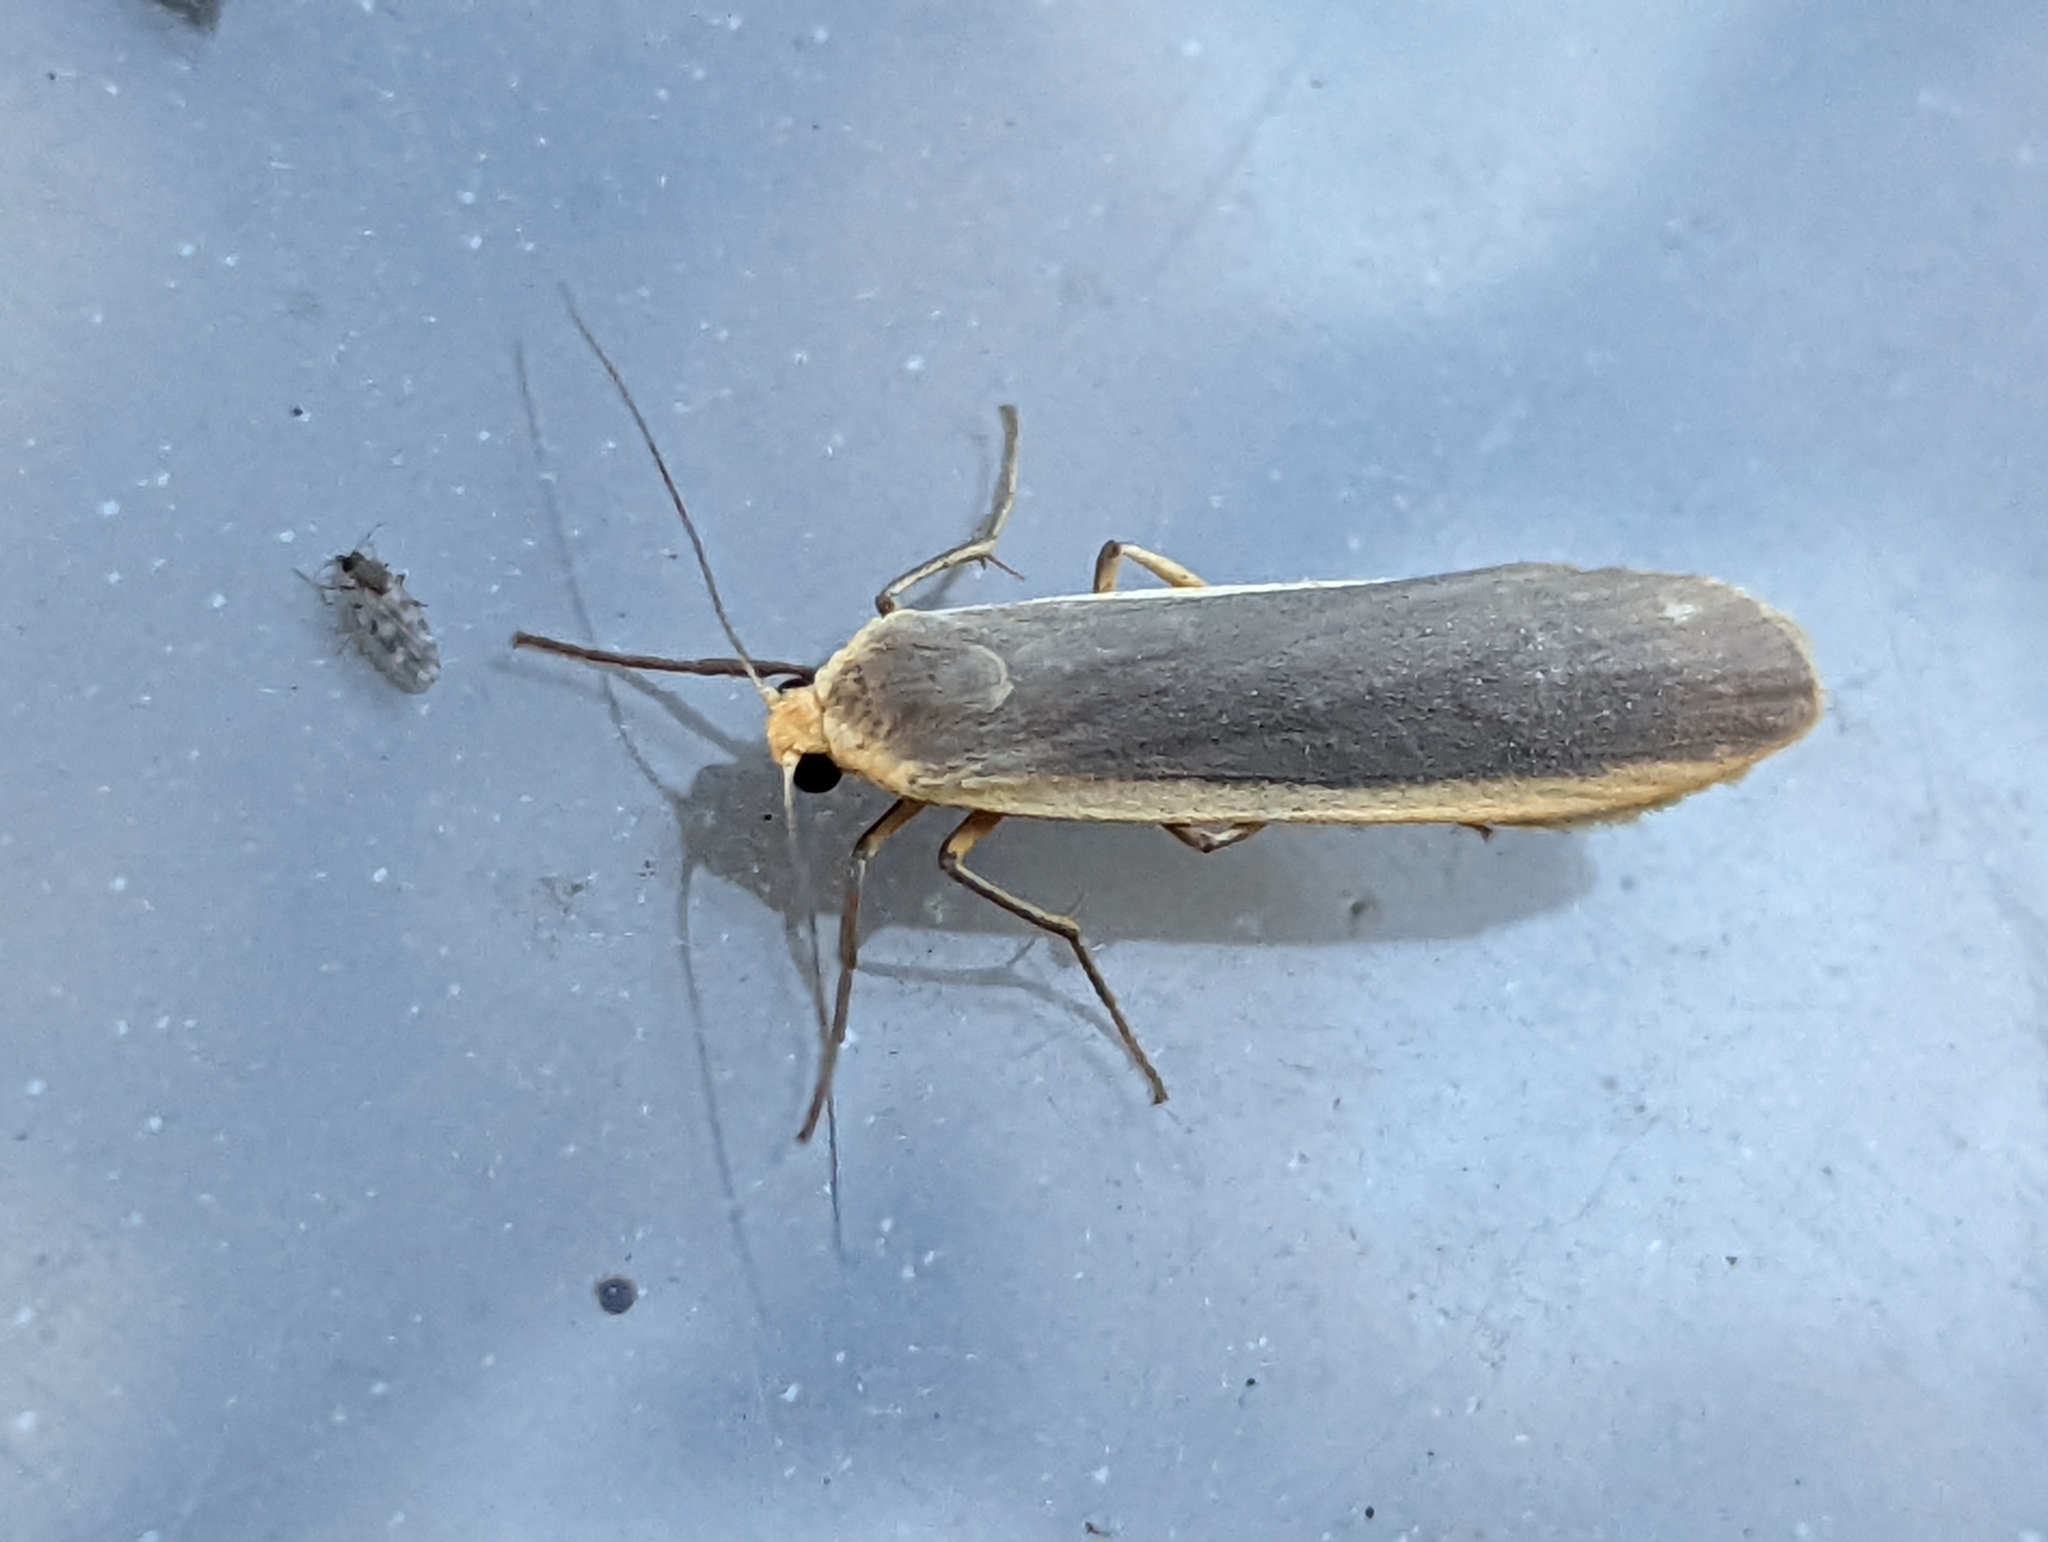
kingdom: Animalia
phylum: Arthropoda
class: Insecta
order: Lepidoptera
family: Erebidae
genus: Nyea
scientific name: Nyea lurideola
